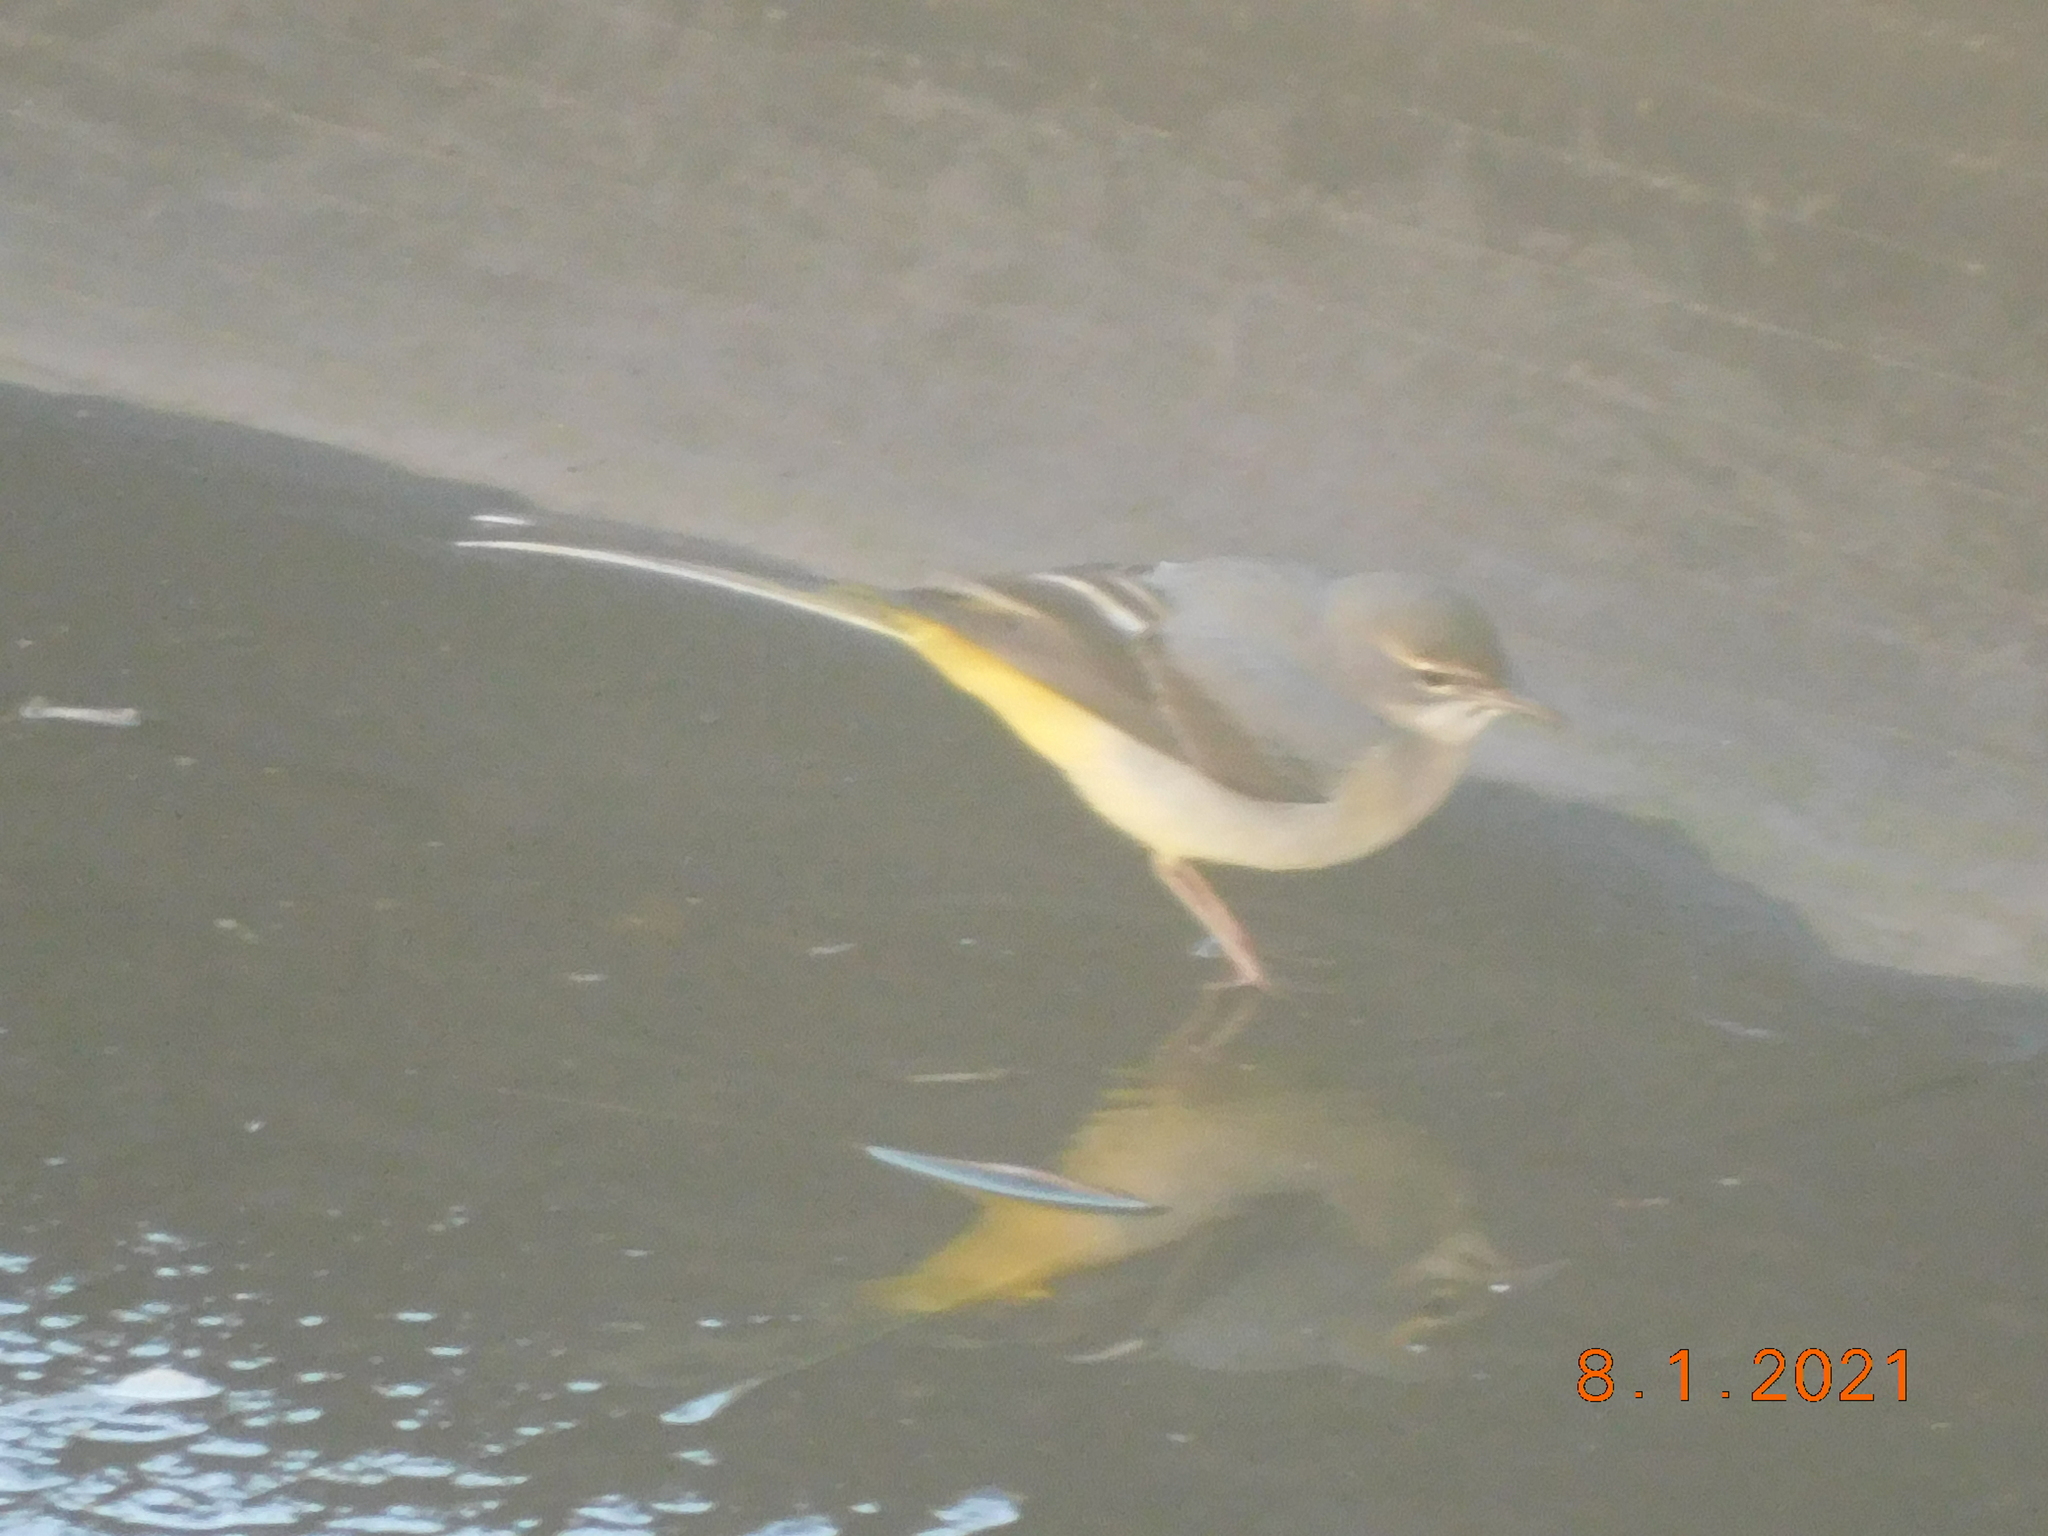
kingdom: Animalia
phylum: Chordata
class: Aves
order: Passeriformes
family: Motacillidae
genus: Motacilla
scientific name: Motacilla cinerea
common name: Grey wagtail
